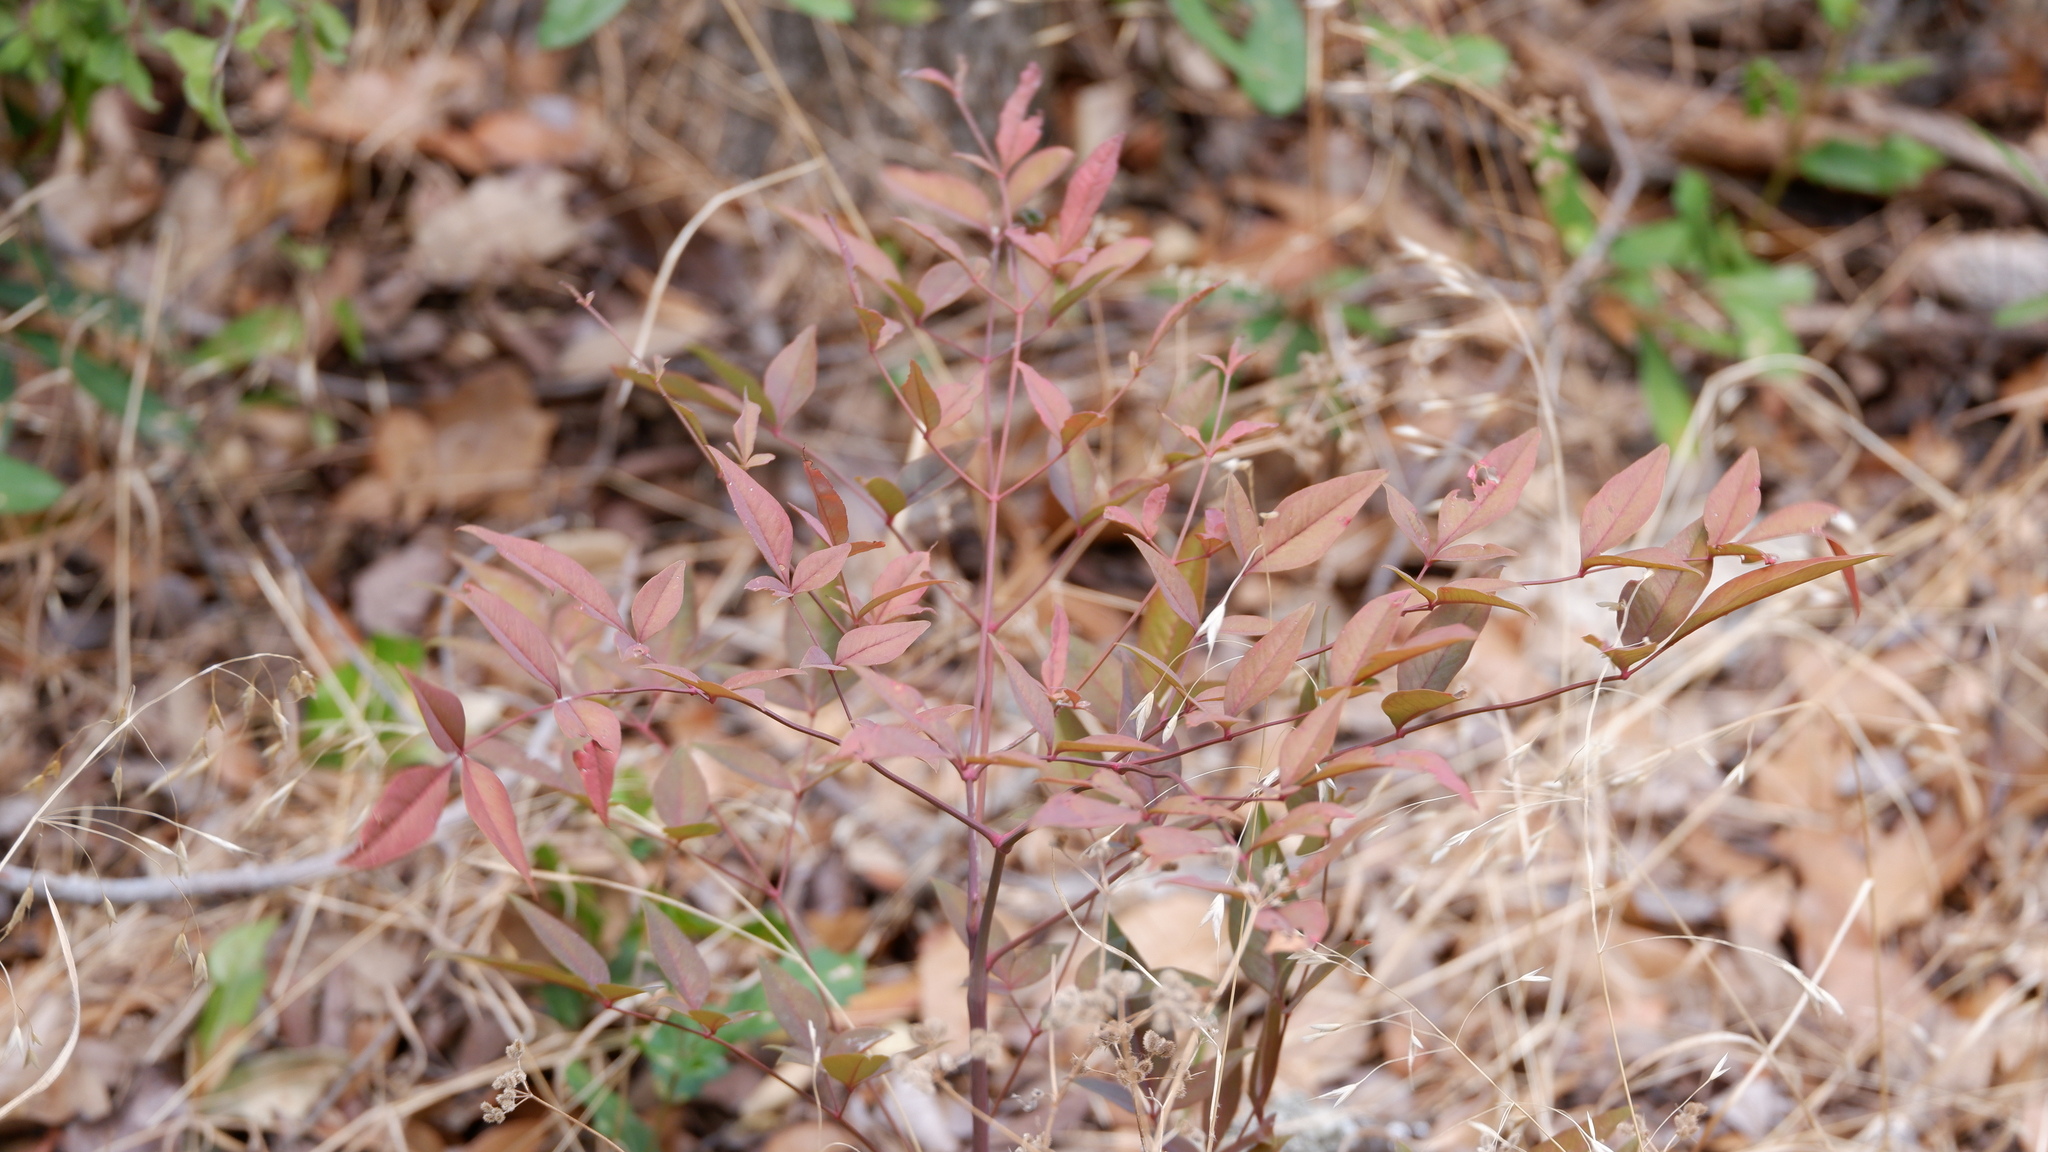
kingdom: Plantae
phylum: Tracheophyta
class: Magnoliopsida
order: Ranunculales
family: Berberidaceae
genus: Nandina
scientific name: Nandina domestica
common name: Sacred bamboo
